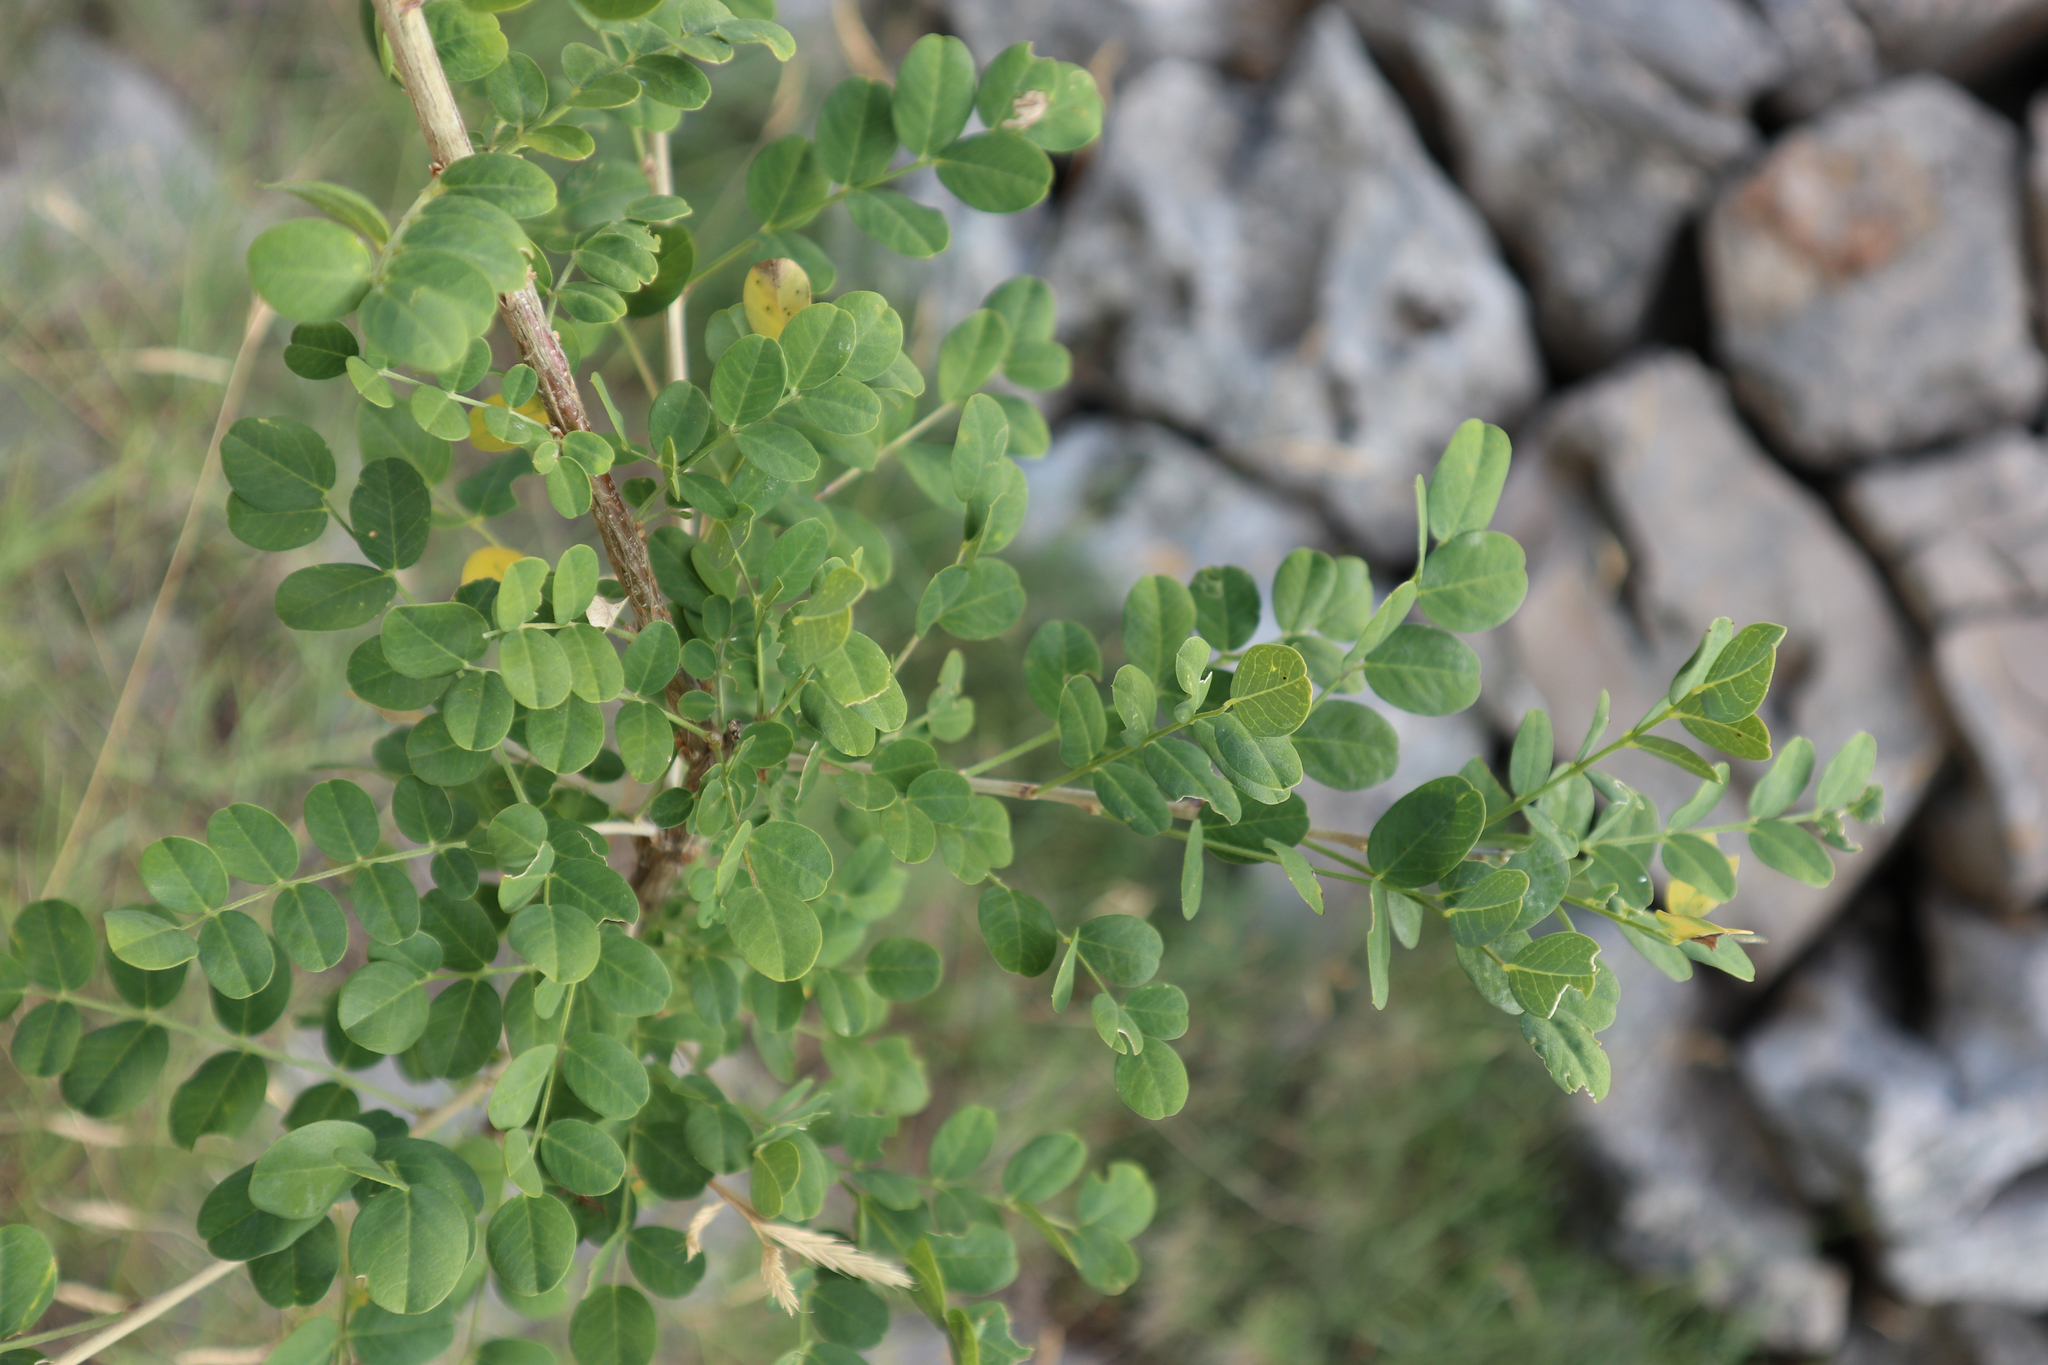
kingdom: Plantae
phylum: Tracheophyta
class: Magnoliopsida
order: Fabales
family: Fabaceae
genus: Colutea
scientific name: Colutea arborescens
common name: Bladder-senna
